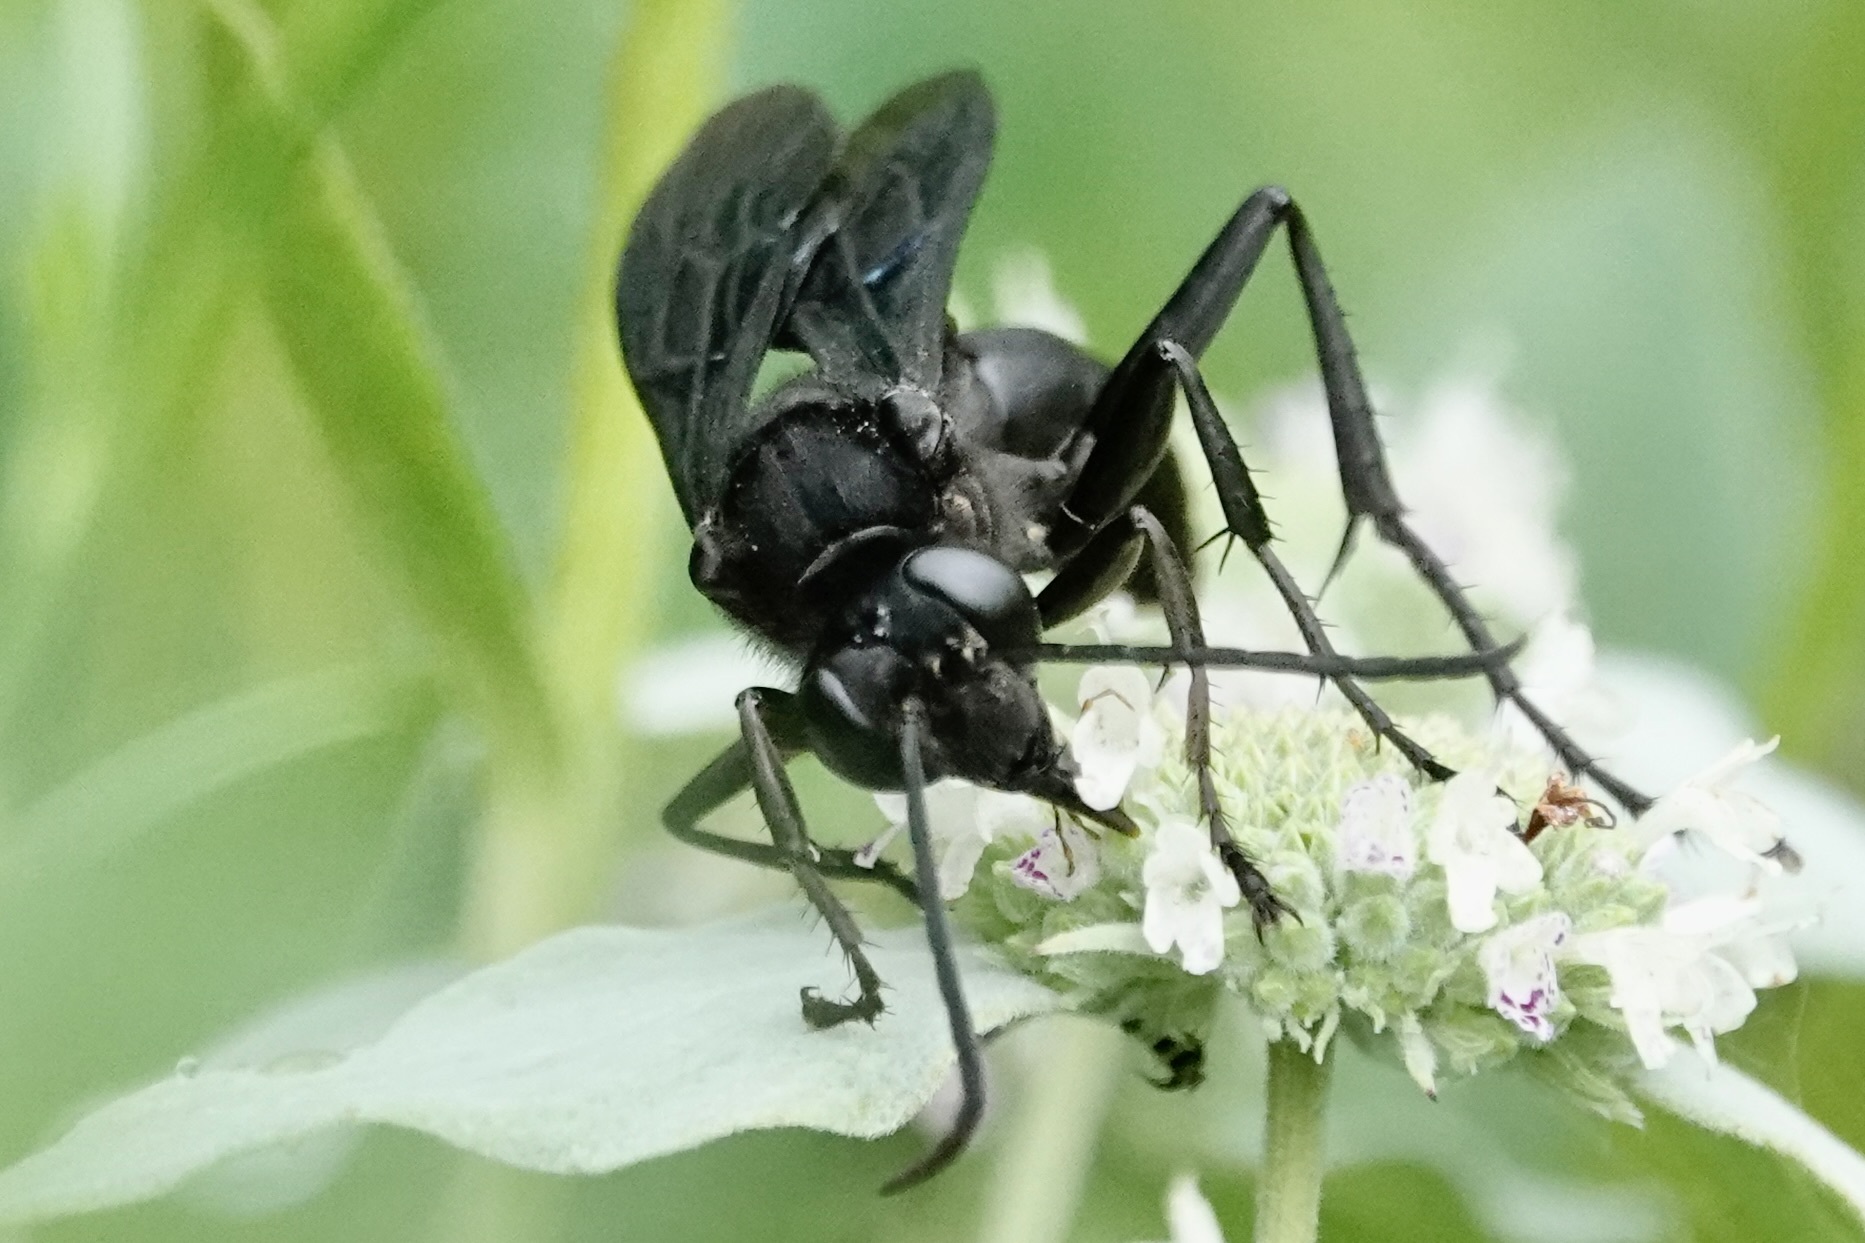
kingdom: Animalia
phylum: Arthropoda
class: Insecta
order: Hymenoptera
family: Sphecidae
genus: Sphex
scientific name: Sphex pensylvanicus
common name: Great black digger wasp
